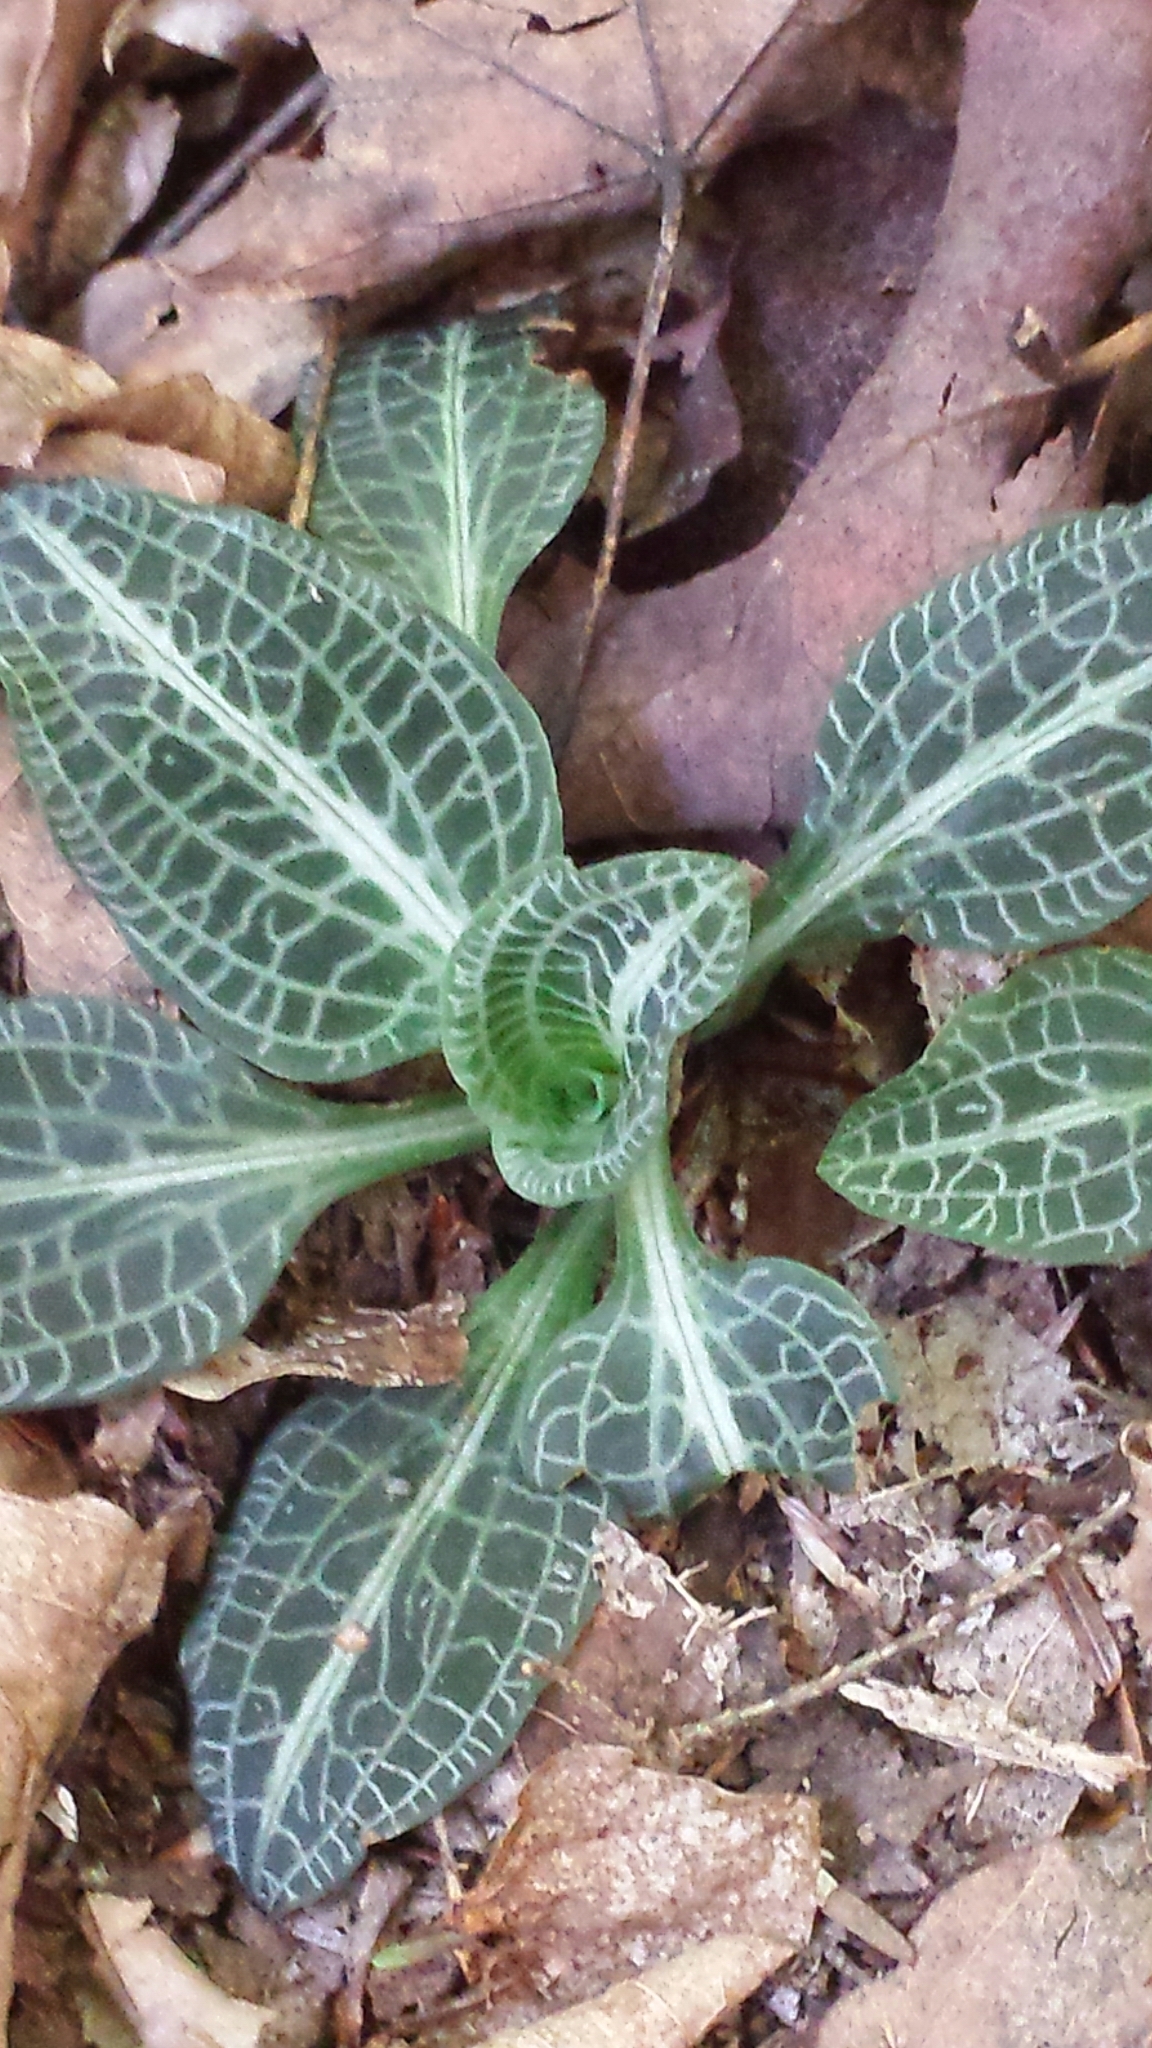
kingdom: Plantae
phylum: Tracheophyta
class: Liliopsida
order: Asparagales
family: Orchidaceae
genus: Goodyera
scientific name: Goodyera pubescens
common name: Downy rattlesnake-plantain
